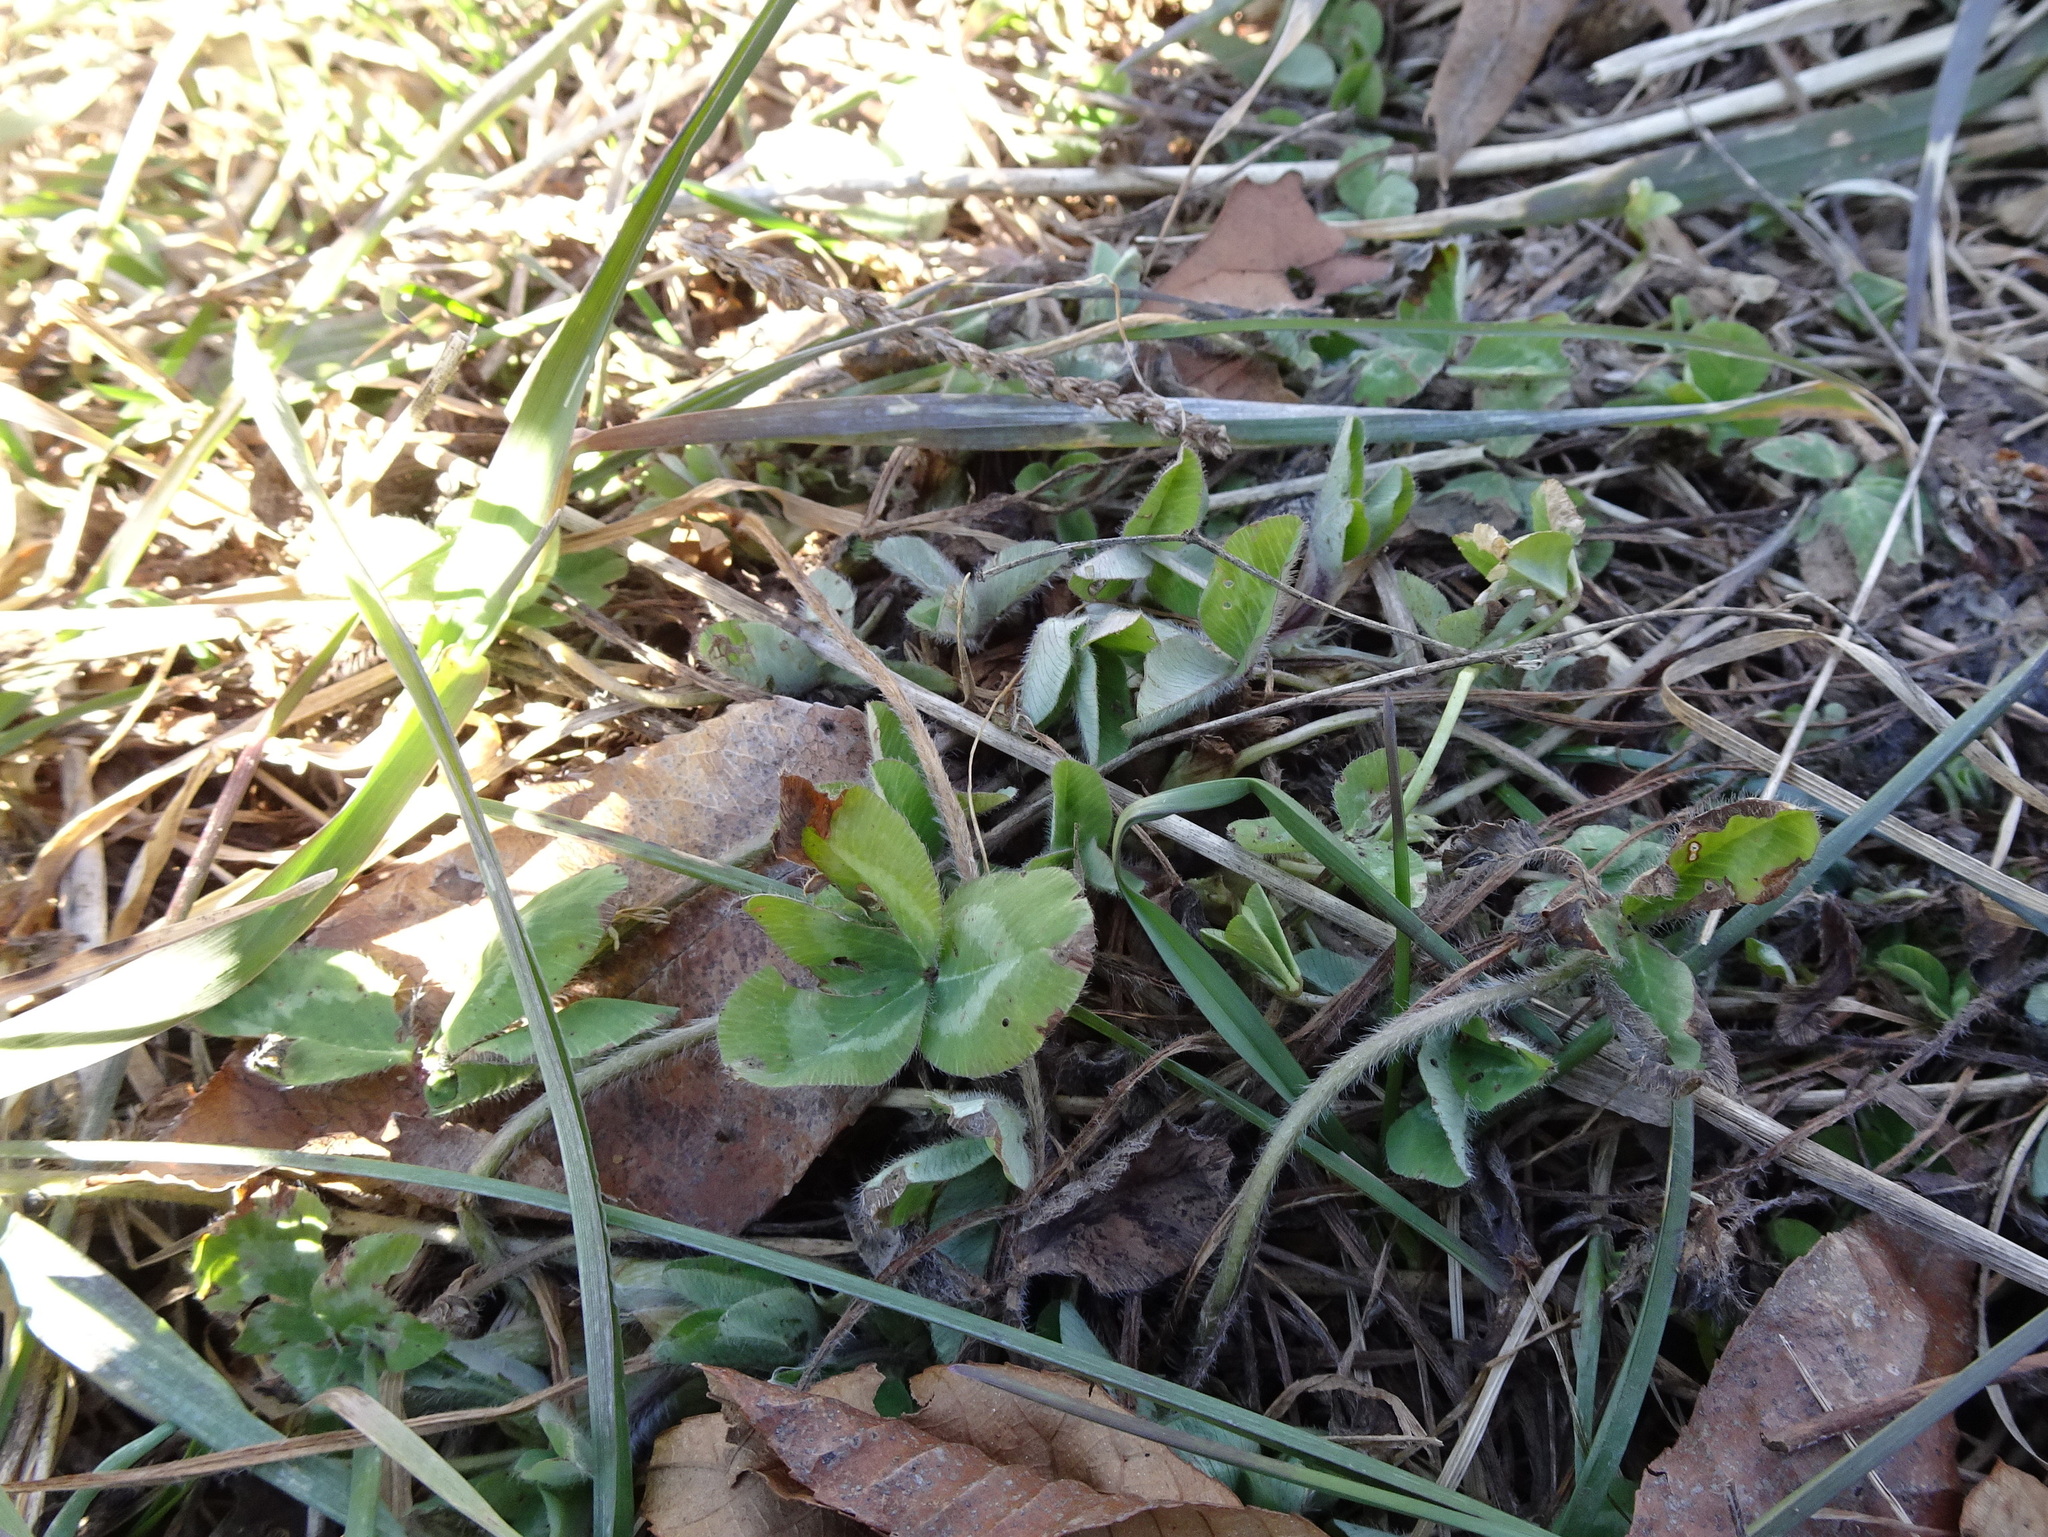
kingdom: Plantae
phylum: Tracheophyta
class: Magnoliopsida
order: Fabales
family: Fabaceae
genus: Trifolium
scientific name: Trifolium pratense
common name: Red clover
